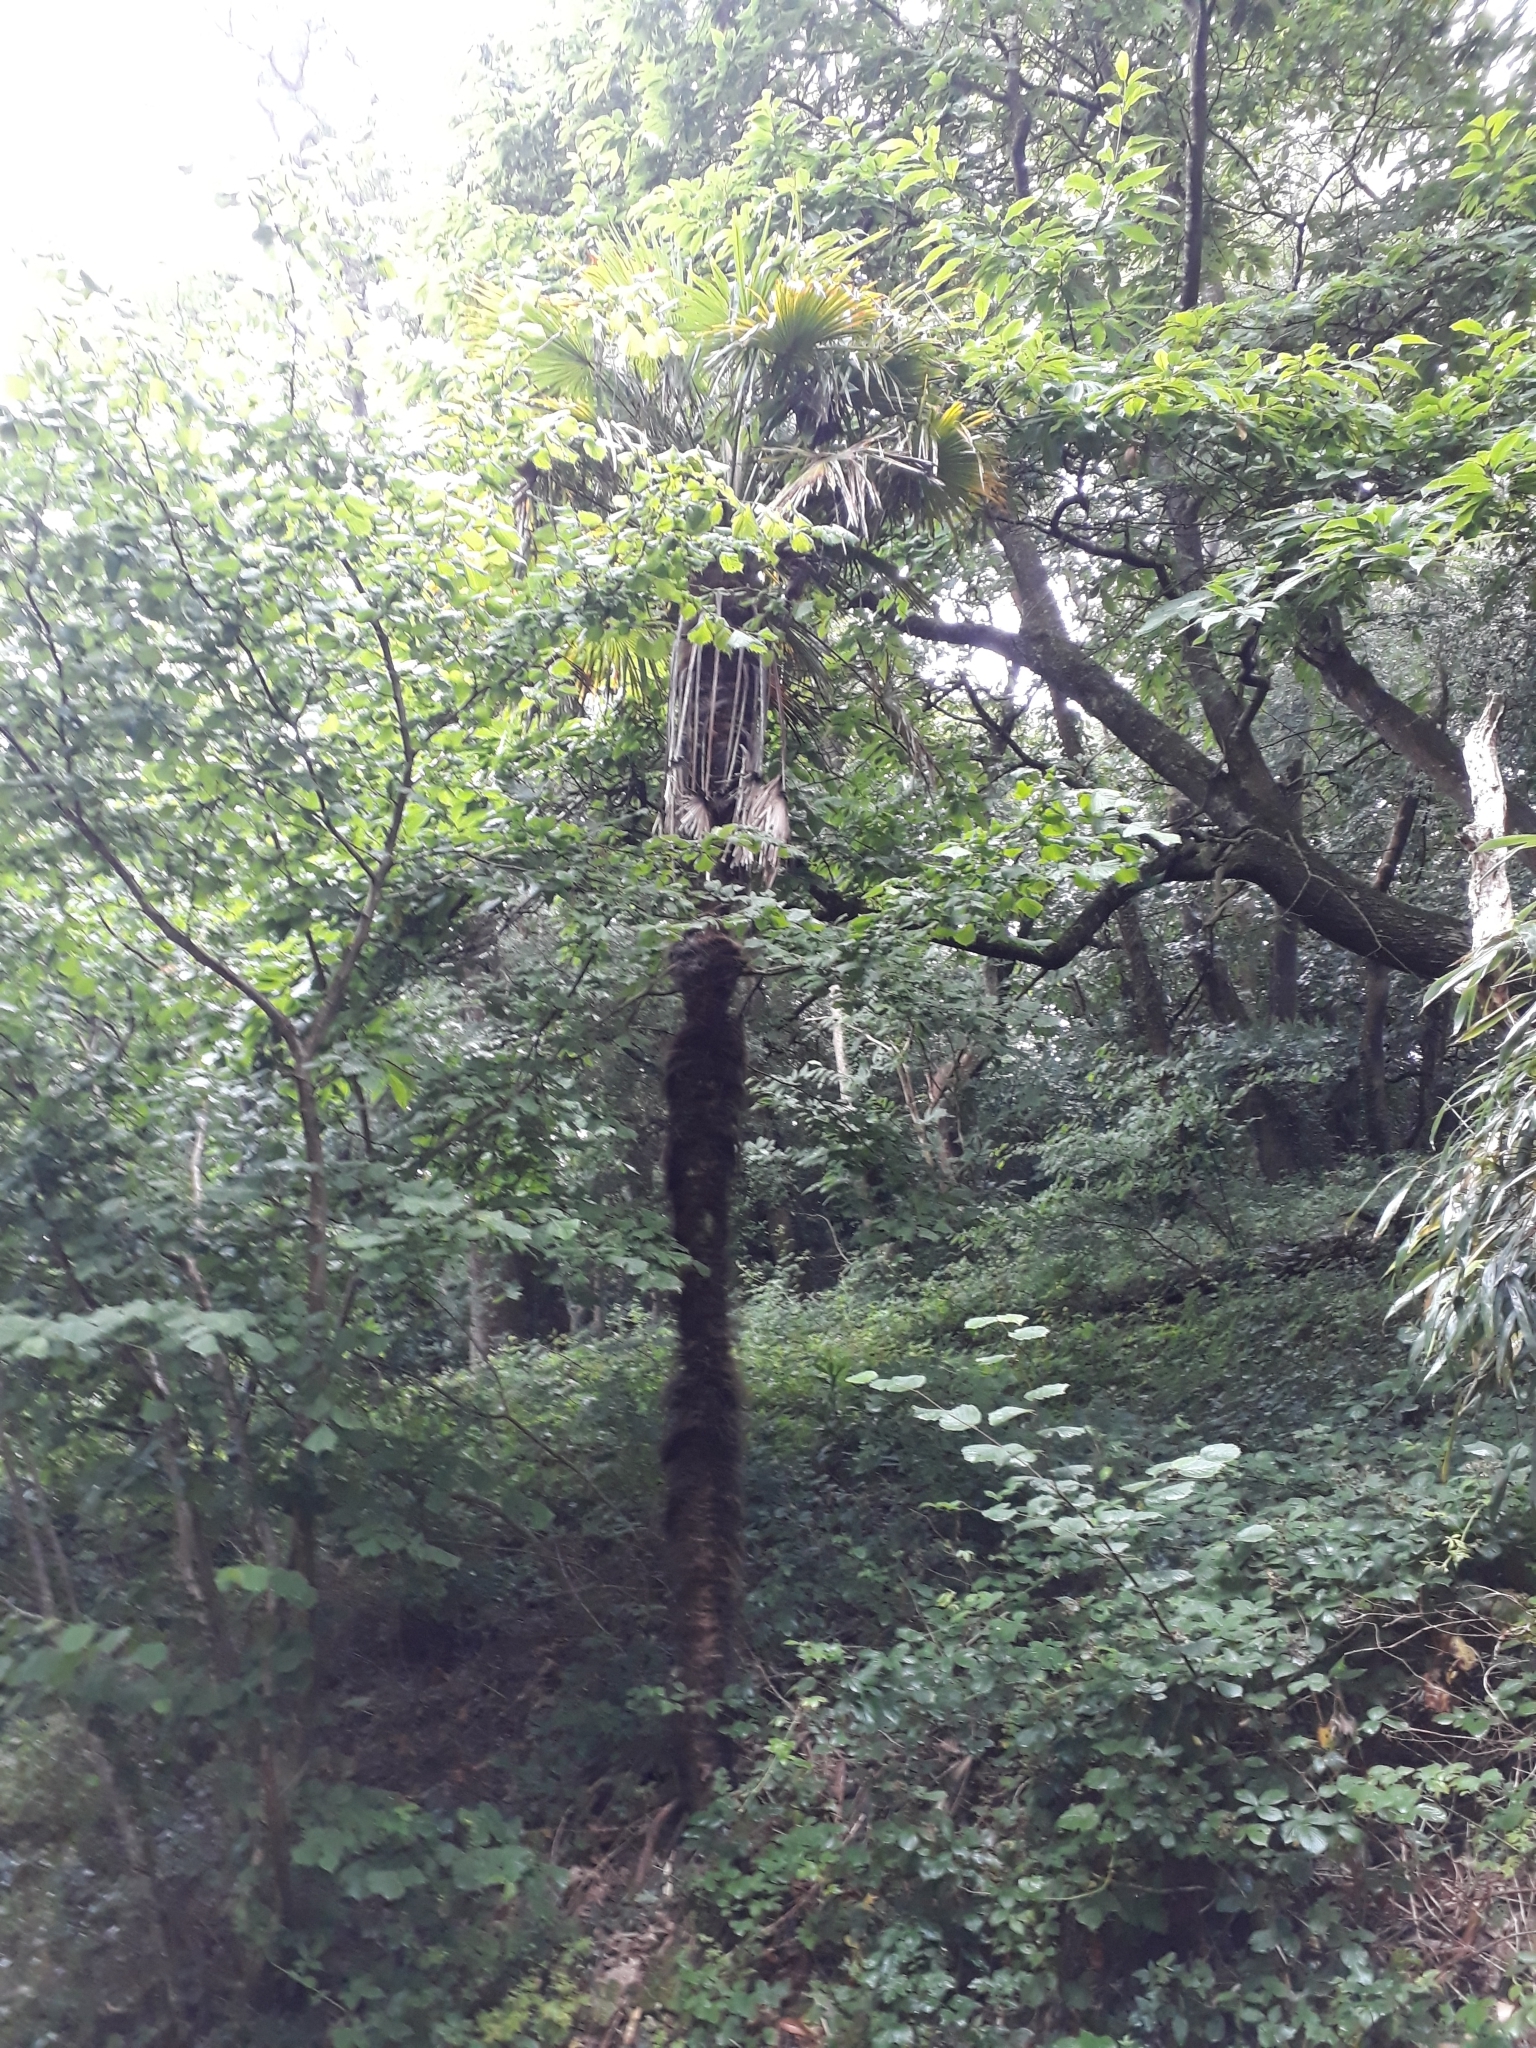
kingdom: Plantae
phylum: Tracheophyta
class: Liliopsida
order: Arecales
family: Arecaceae
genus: Trachycarpus
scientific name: Trachycarpus fortunei
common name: Chusan palm
